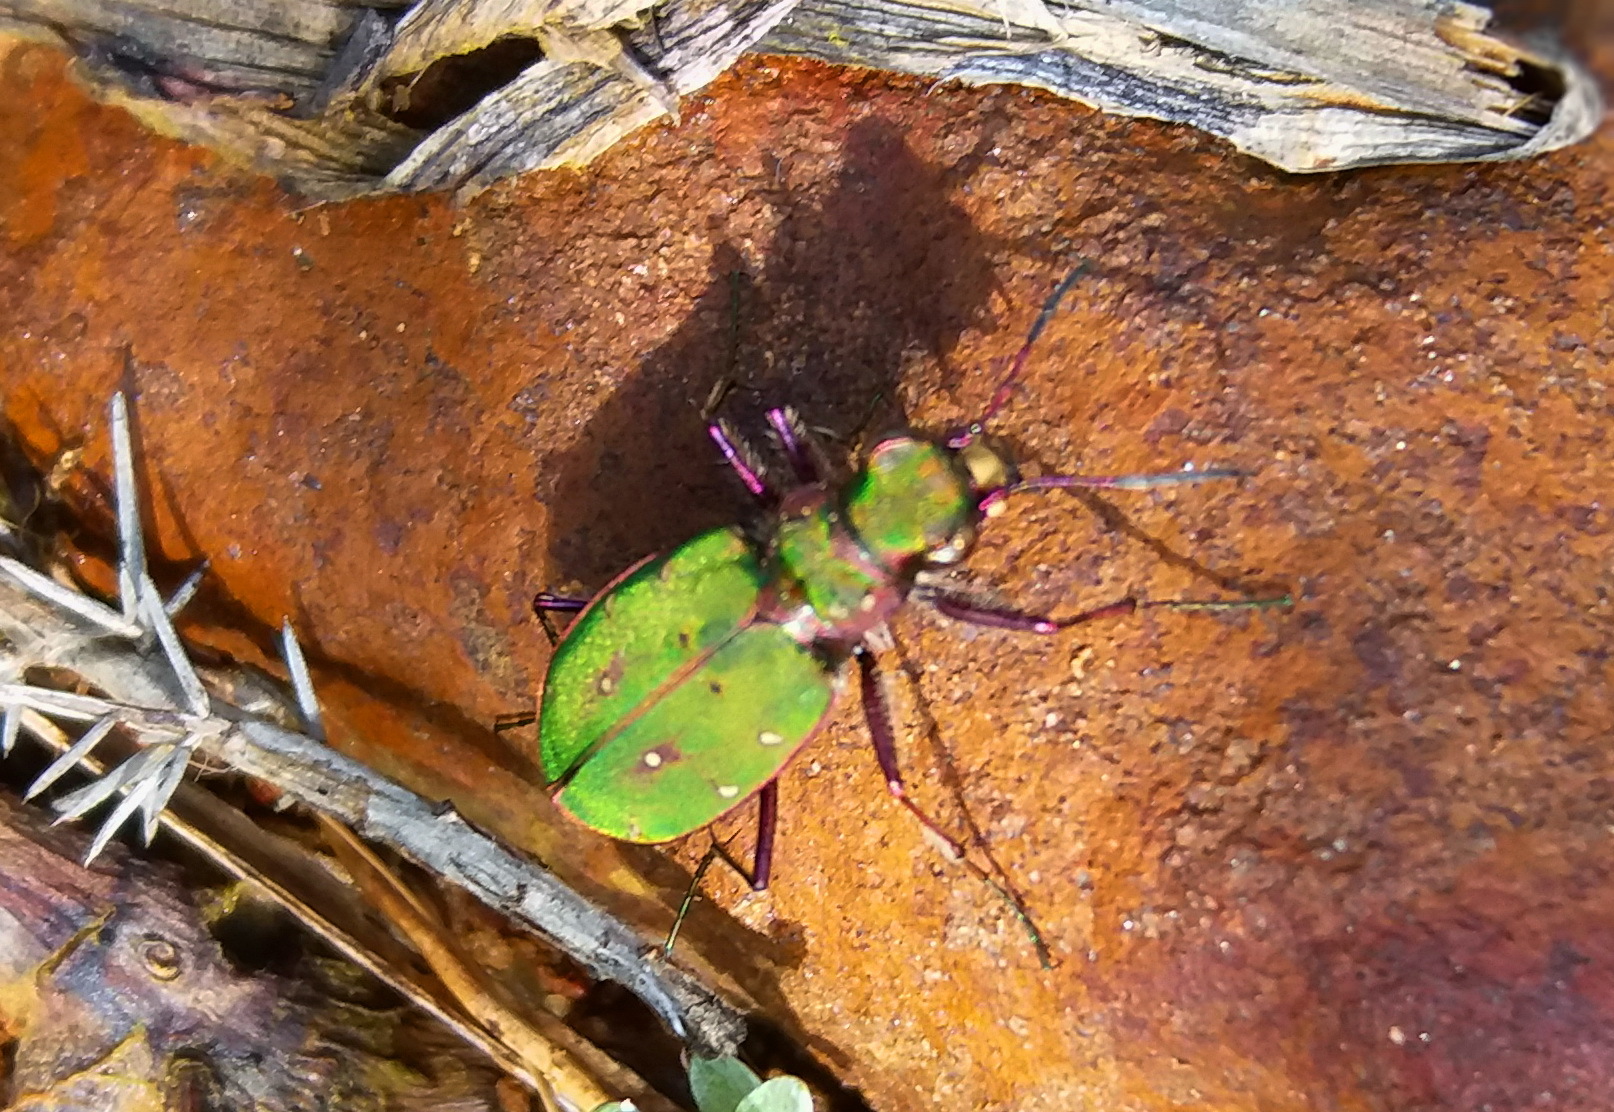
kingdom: Animalia
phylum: Arthropoda
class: Insecta
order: Coleoptera
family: Carabidae
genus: Cicindela
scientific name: Cicindela campestris
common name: Common tiger beetle
